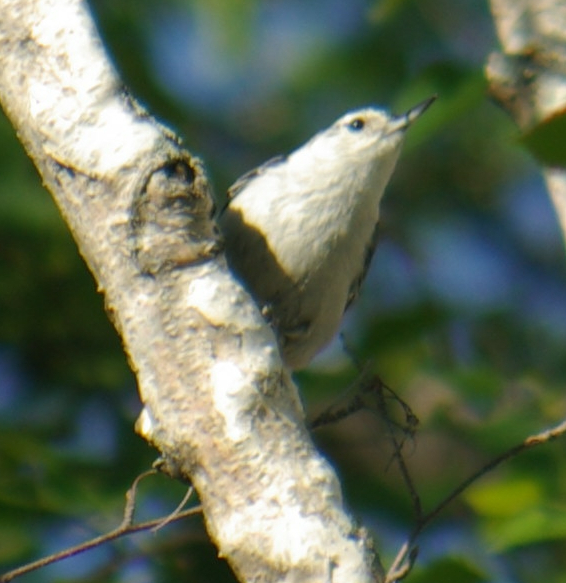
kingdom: Animalia
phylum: Chordata
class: Aves
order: Passeriformes
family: Sittidae
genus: Sitta
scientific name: Sitta carolinensis
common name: White-breasted nuthatch
